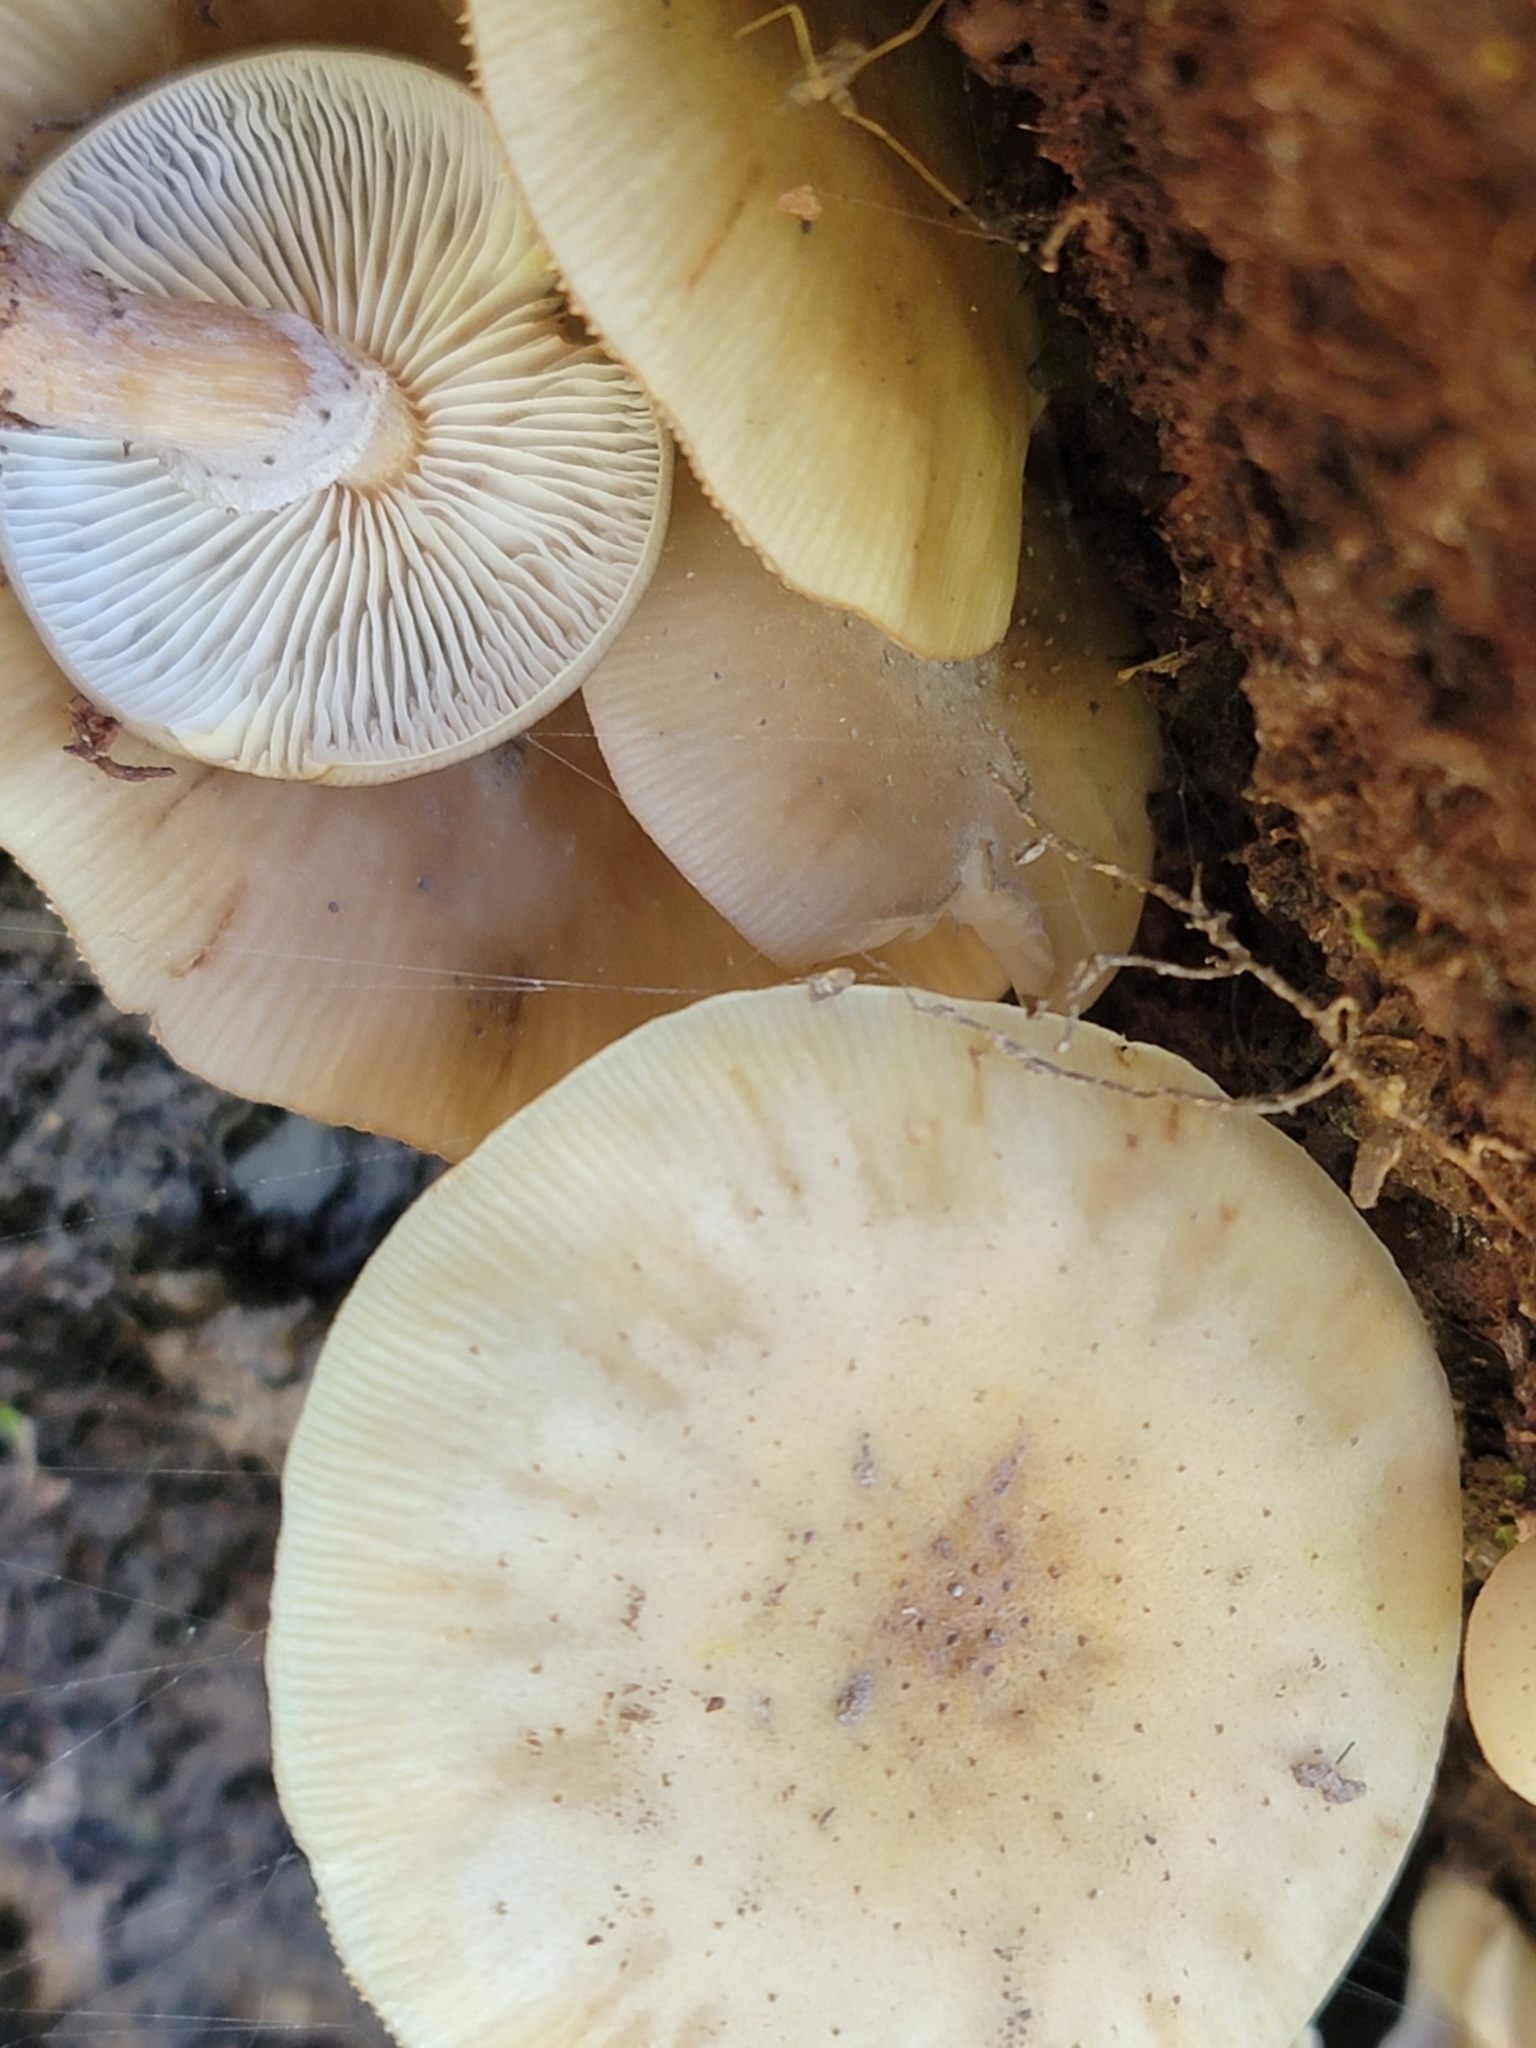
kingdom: Fungi
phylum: Basidiomycota
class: Agaricomycetes
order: Agaricales
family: Physalacriaceae
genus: Armillaria
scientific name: Armillaria limonea
